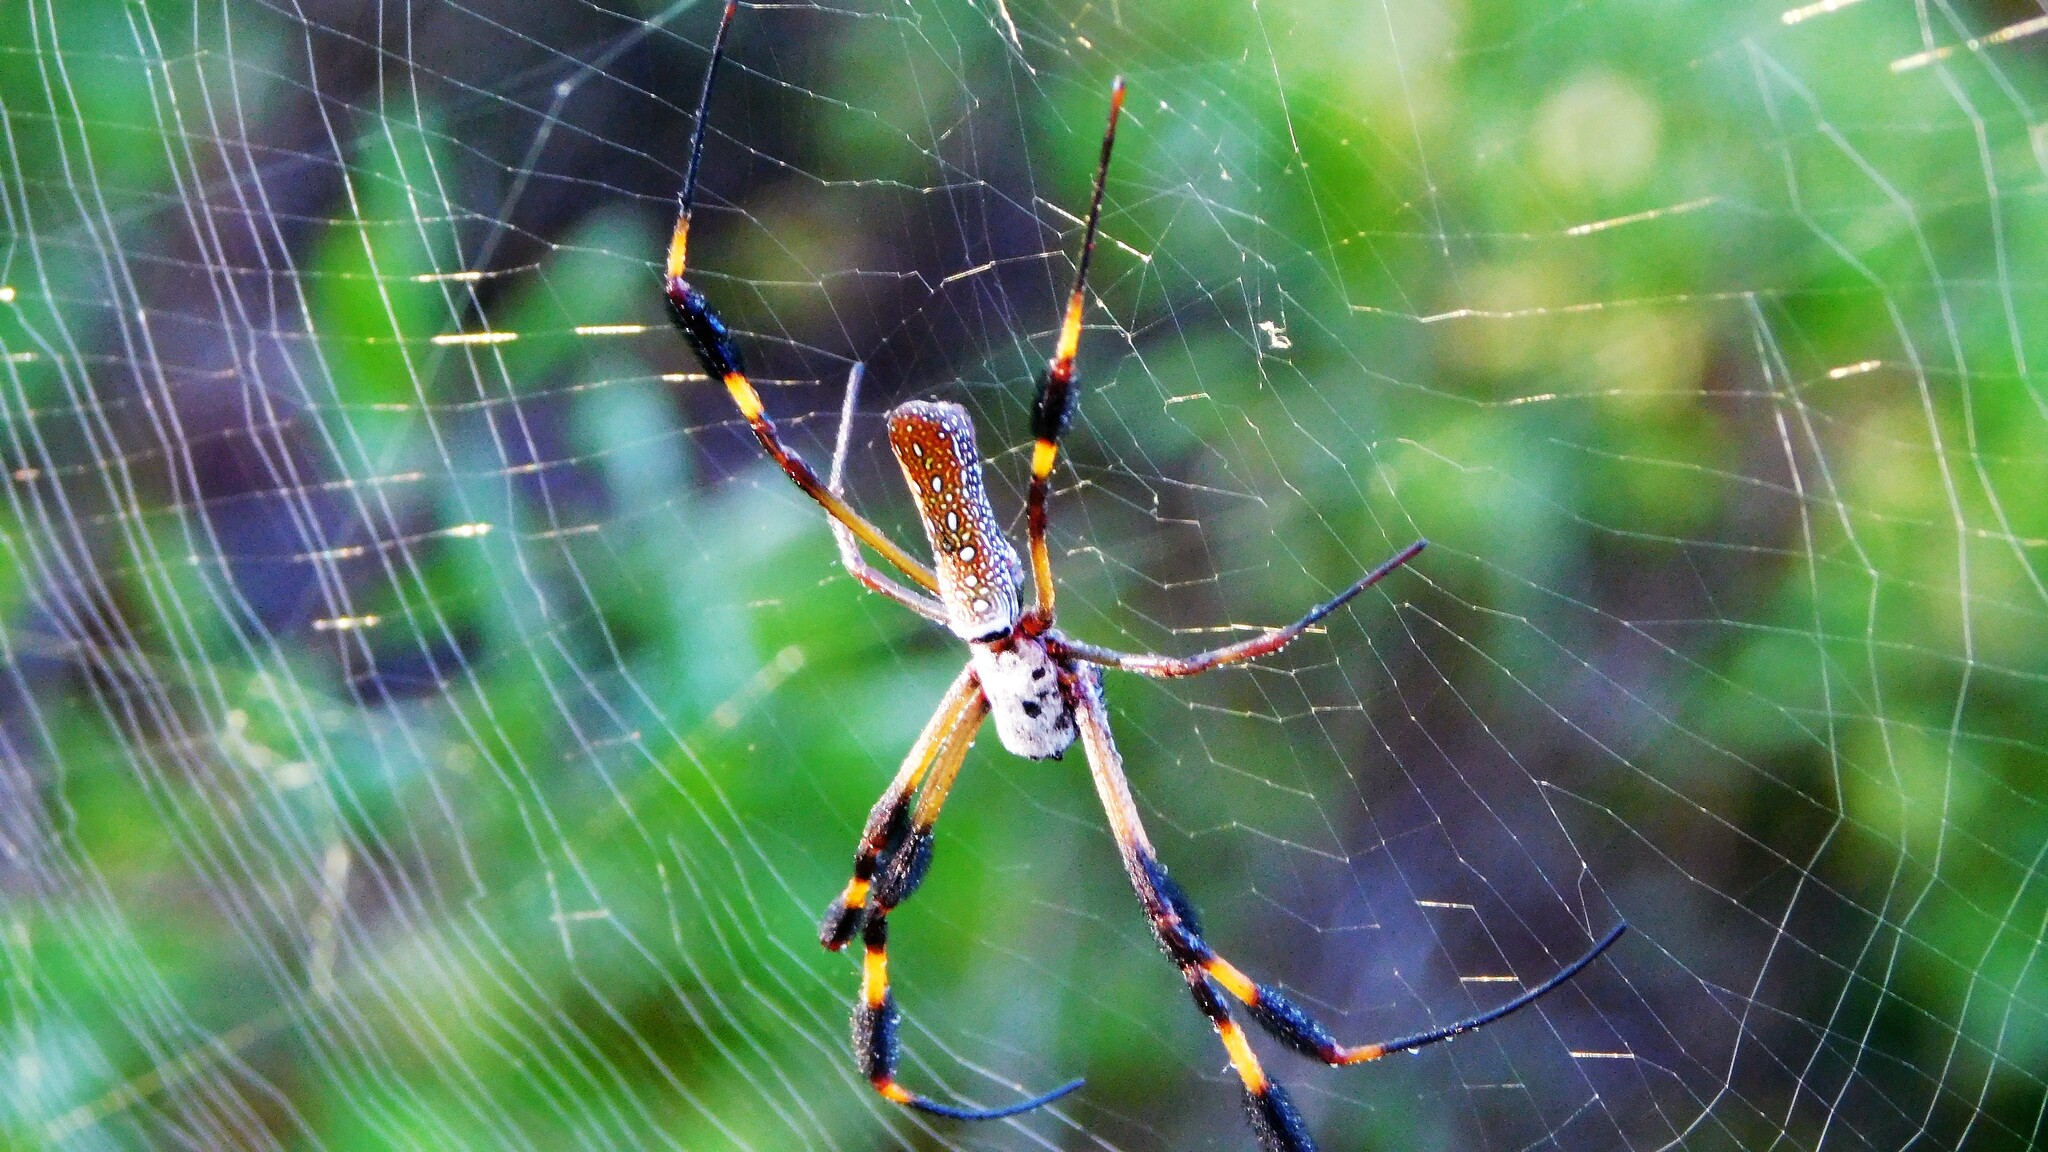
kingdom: Animalia
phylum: Arthropoda
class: Arachnida
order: Araneae
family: Araneidae
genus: Trichonephila
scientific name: Trichonephila clavipes
